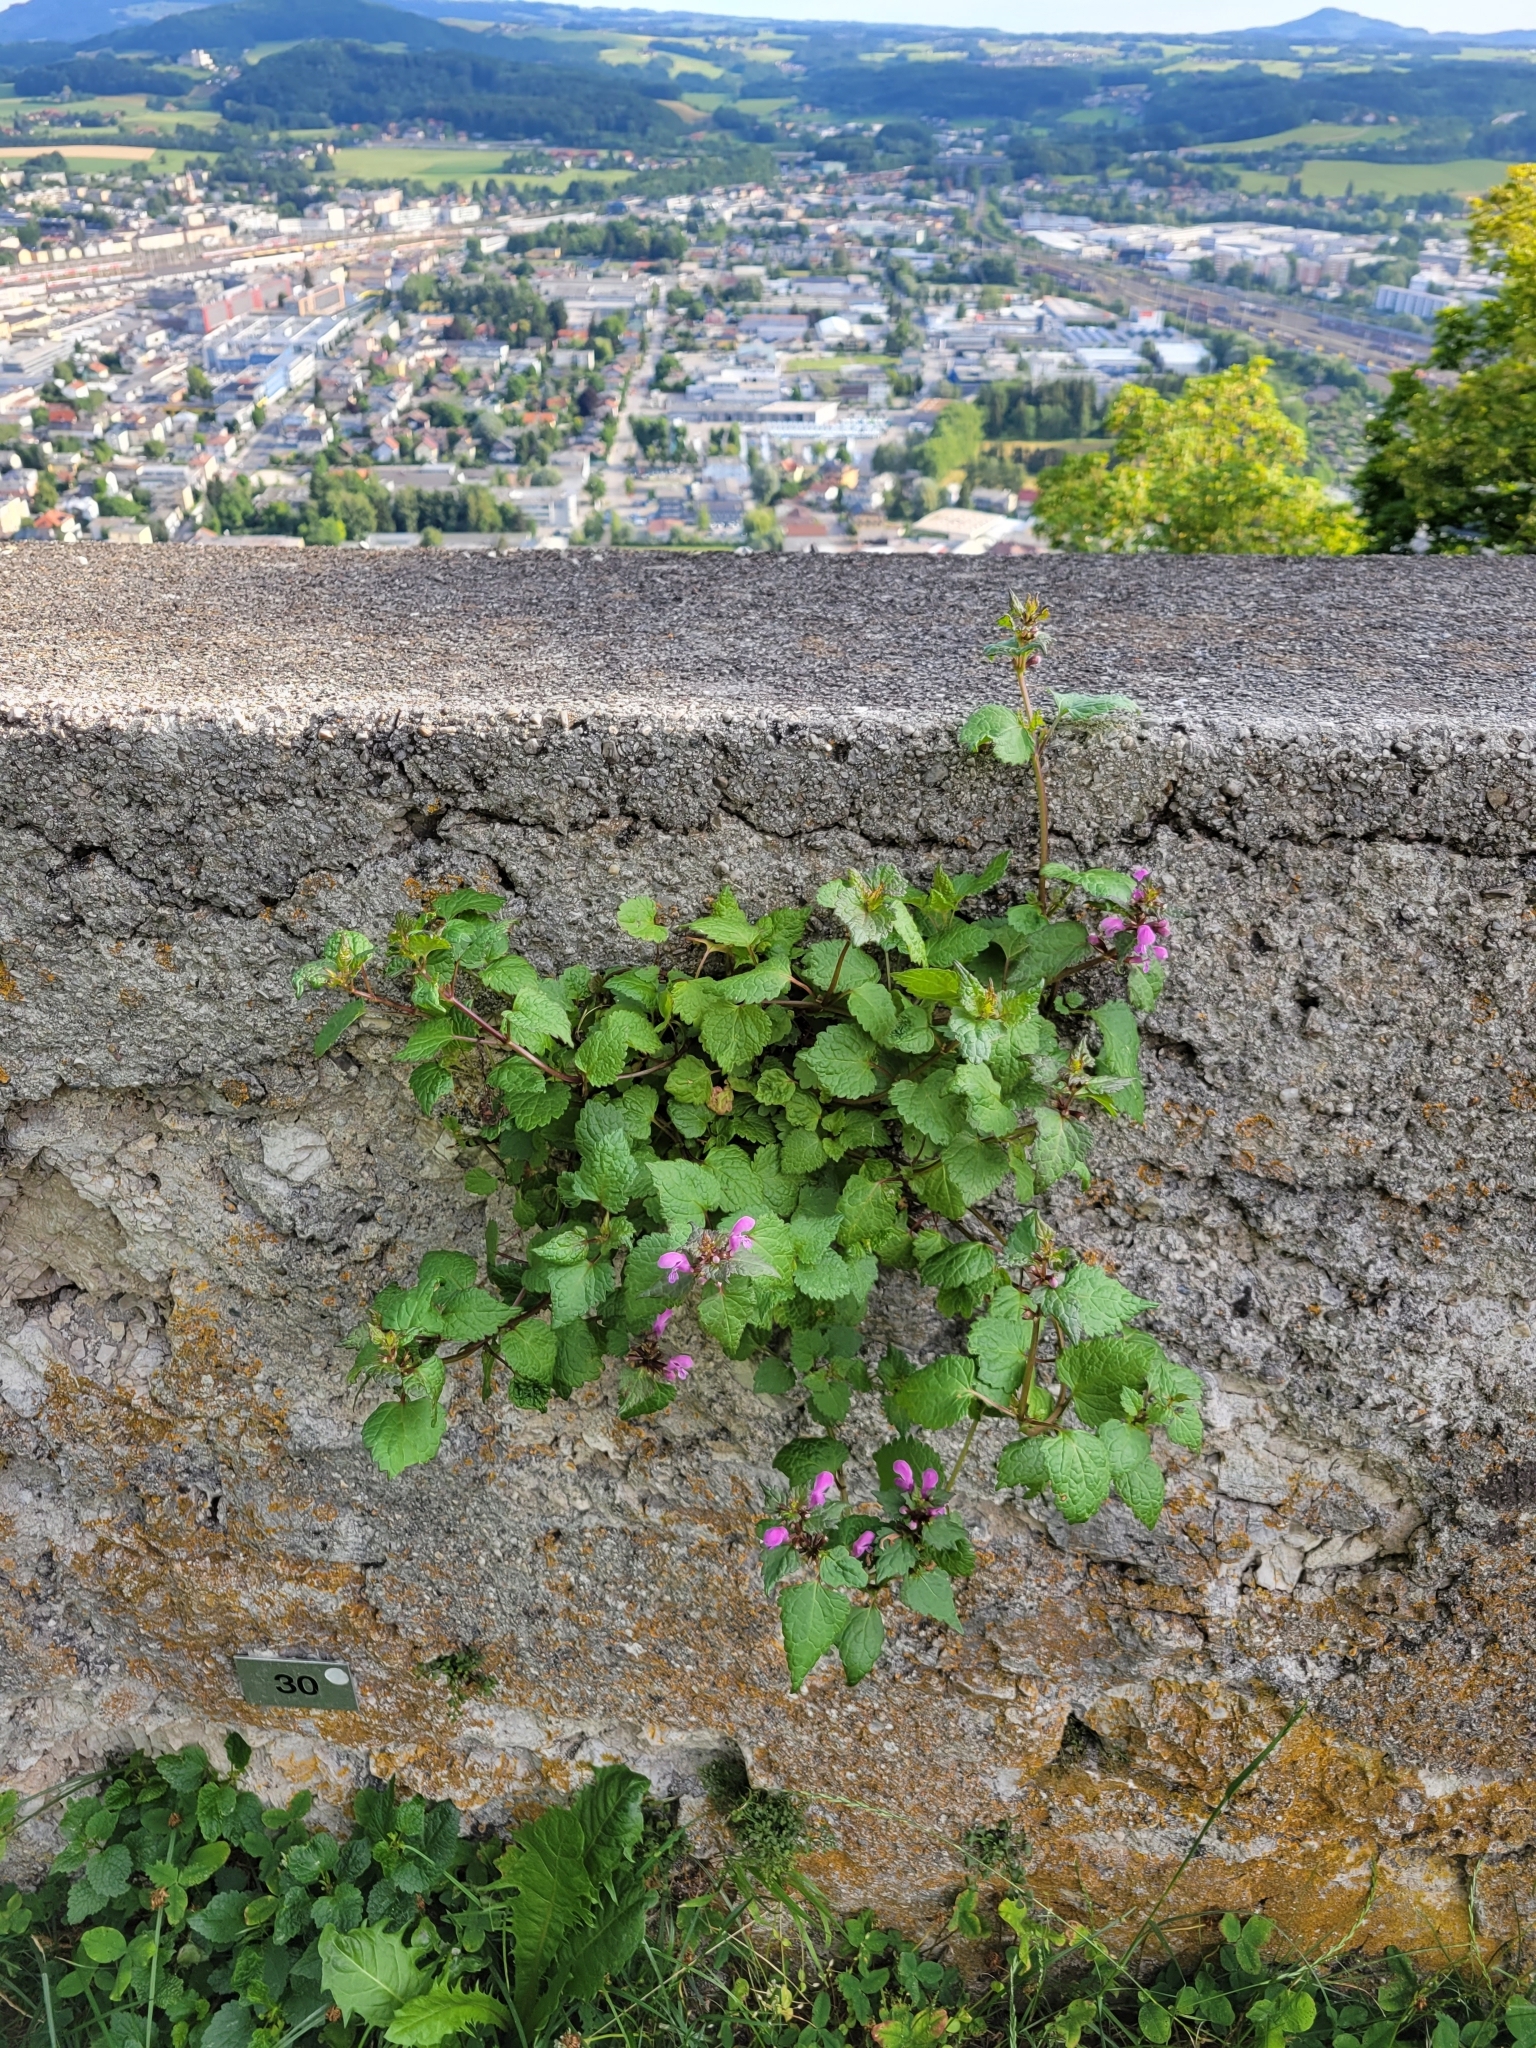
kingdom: Plantae
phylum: Tracheophyta
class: Magnoliopsida
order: Lamiales
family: Lamiaceae
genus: Lamium
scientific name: Lamium maculatum
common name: Spotted dead-nettle
